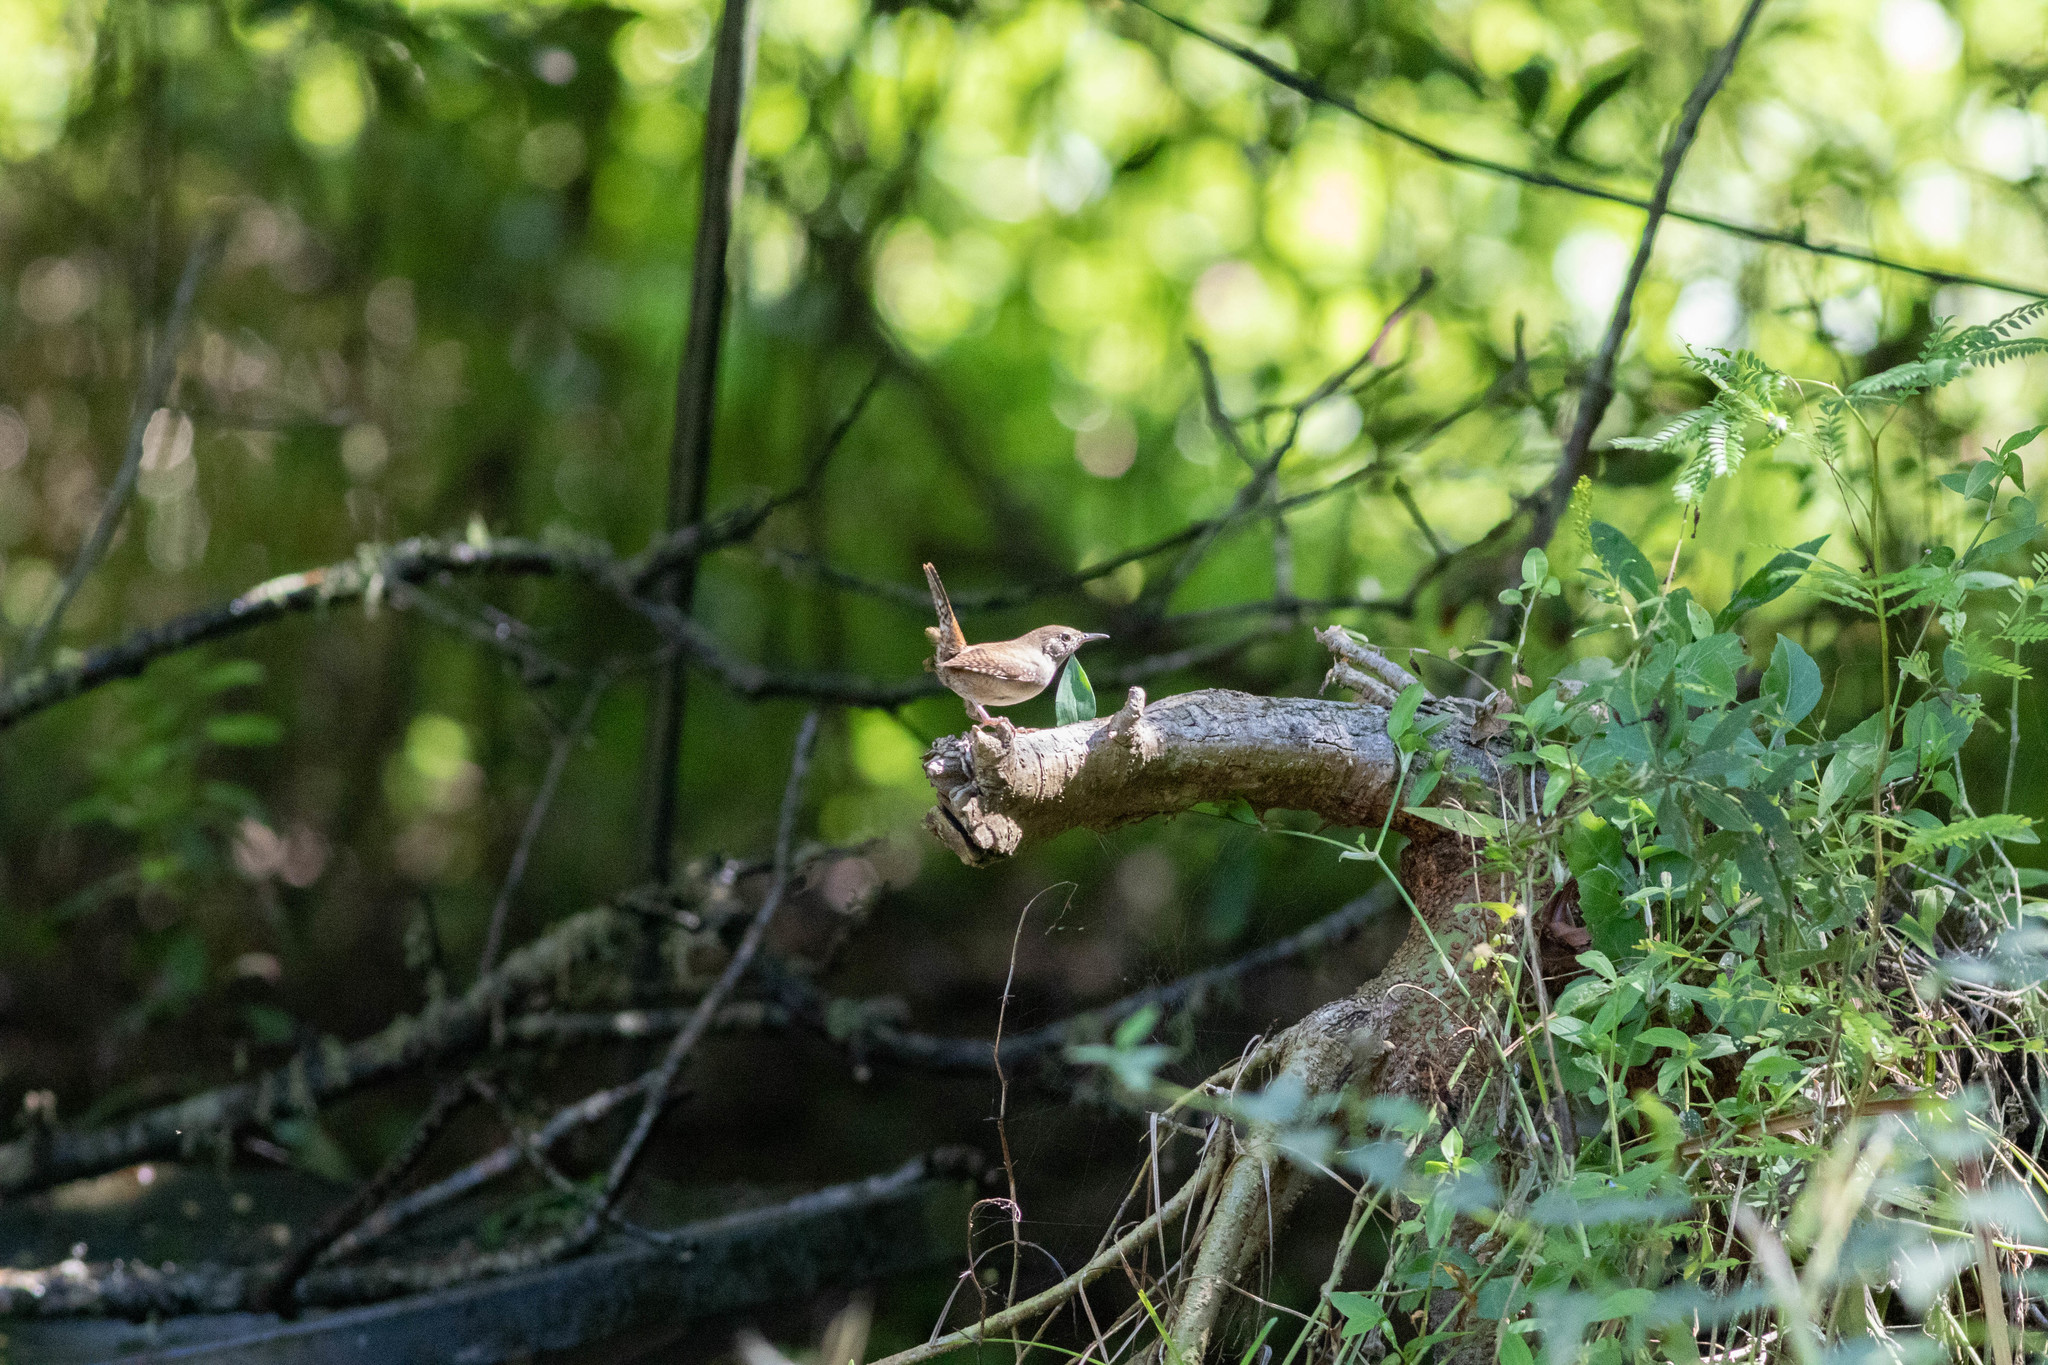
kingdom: Animalia
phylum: Chordata
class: Aves
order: Passeriformes
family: Troglodytidae
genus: Troglodytes
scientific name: Troglodytes aedon
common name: House wren
